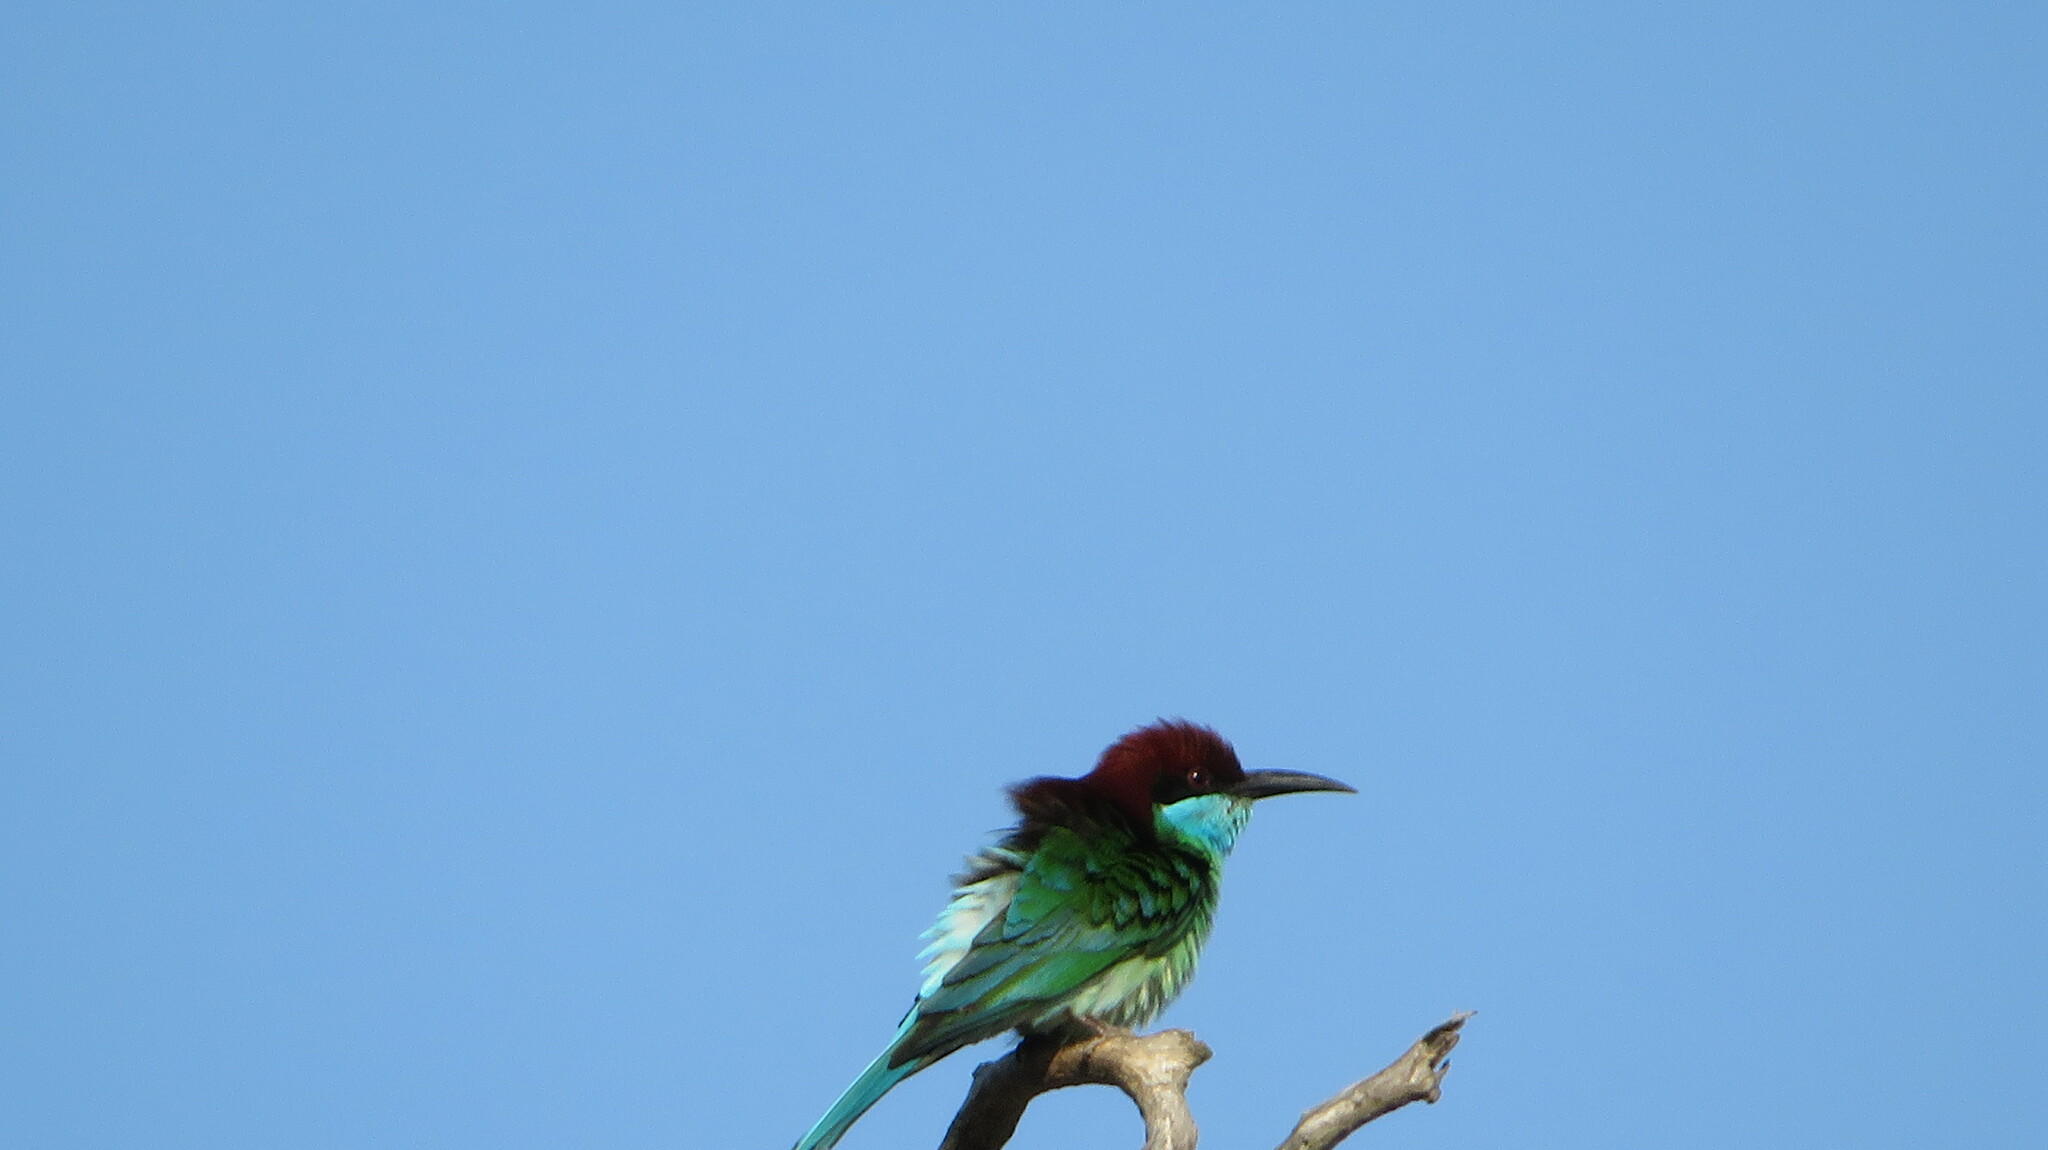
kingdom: Animalia
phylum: Chordata
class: Aves
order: Coraciiformes
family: Meropidae
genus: Merops
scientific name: Merops viridis
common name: Blue-throated bee-eater
